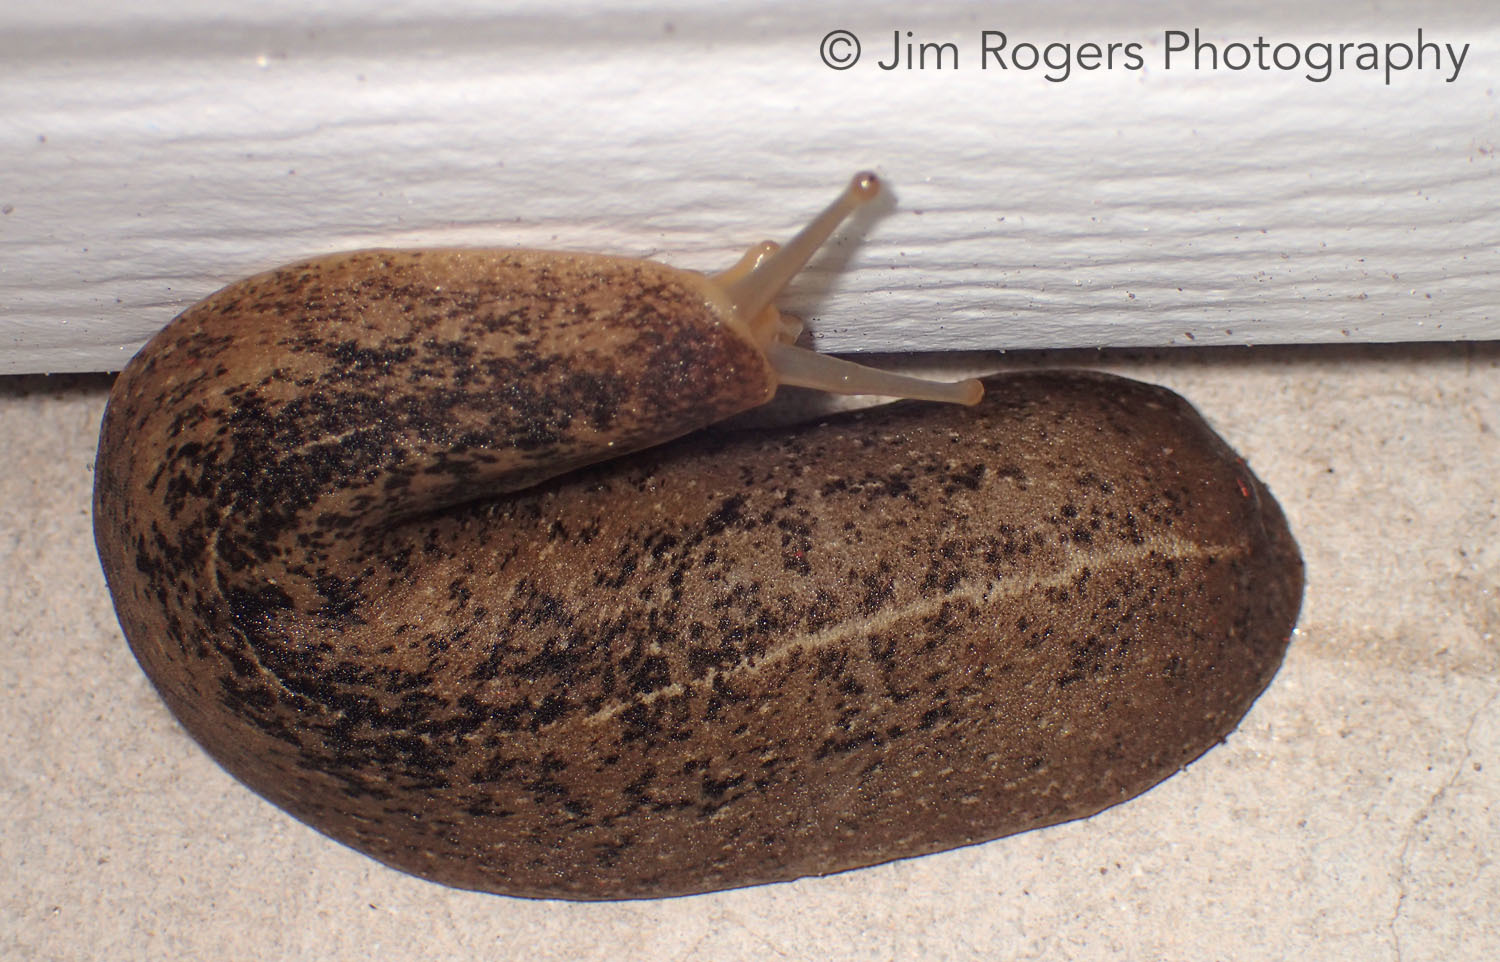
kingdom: Animalia
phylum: Mollusca
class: Gastropoda
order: Systellommatophora
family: Veronicellidae
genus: Leidyula
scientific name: Leidyula floridana
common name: Florida leatherleaf
